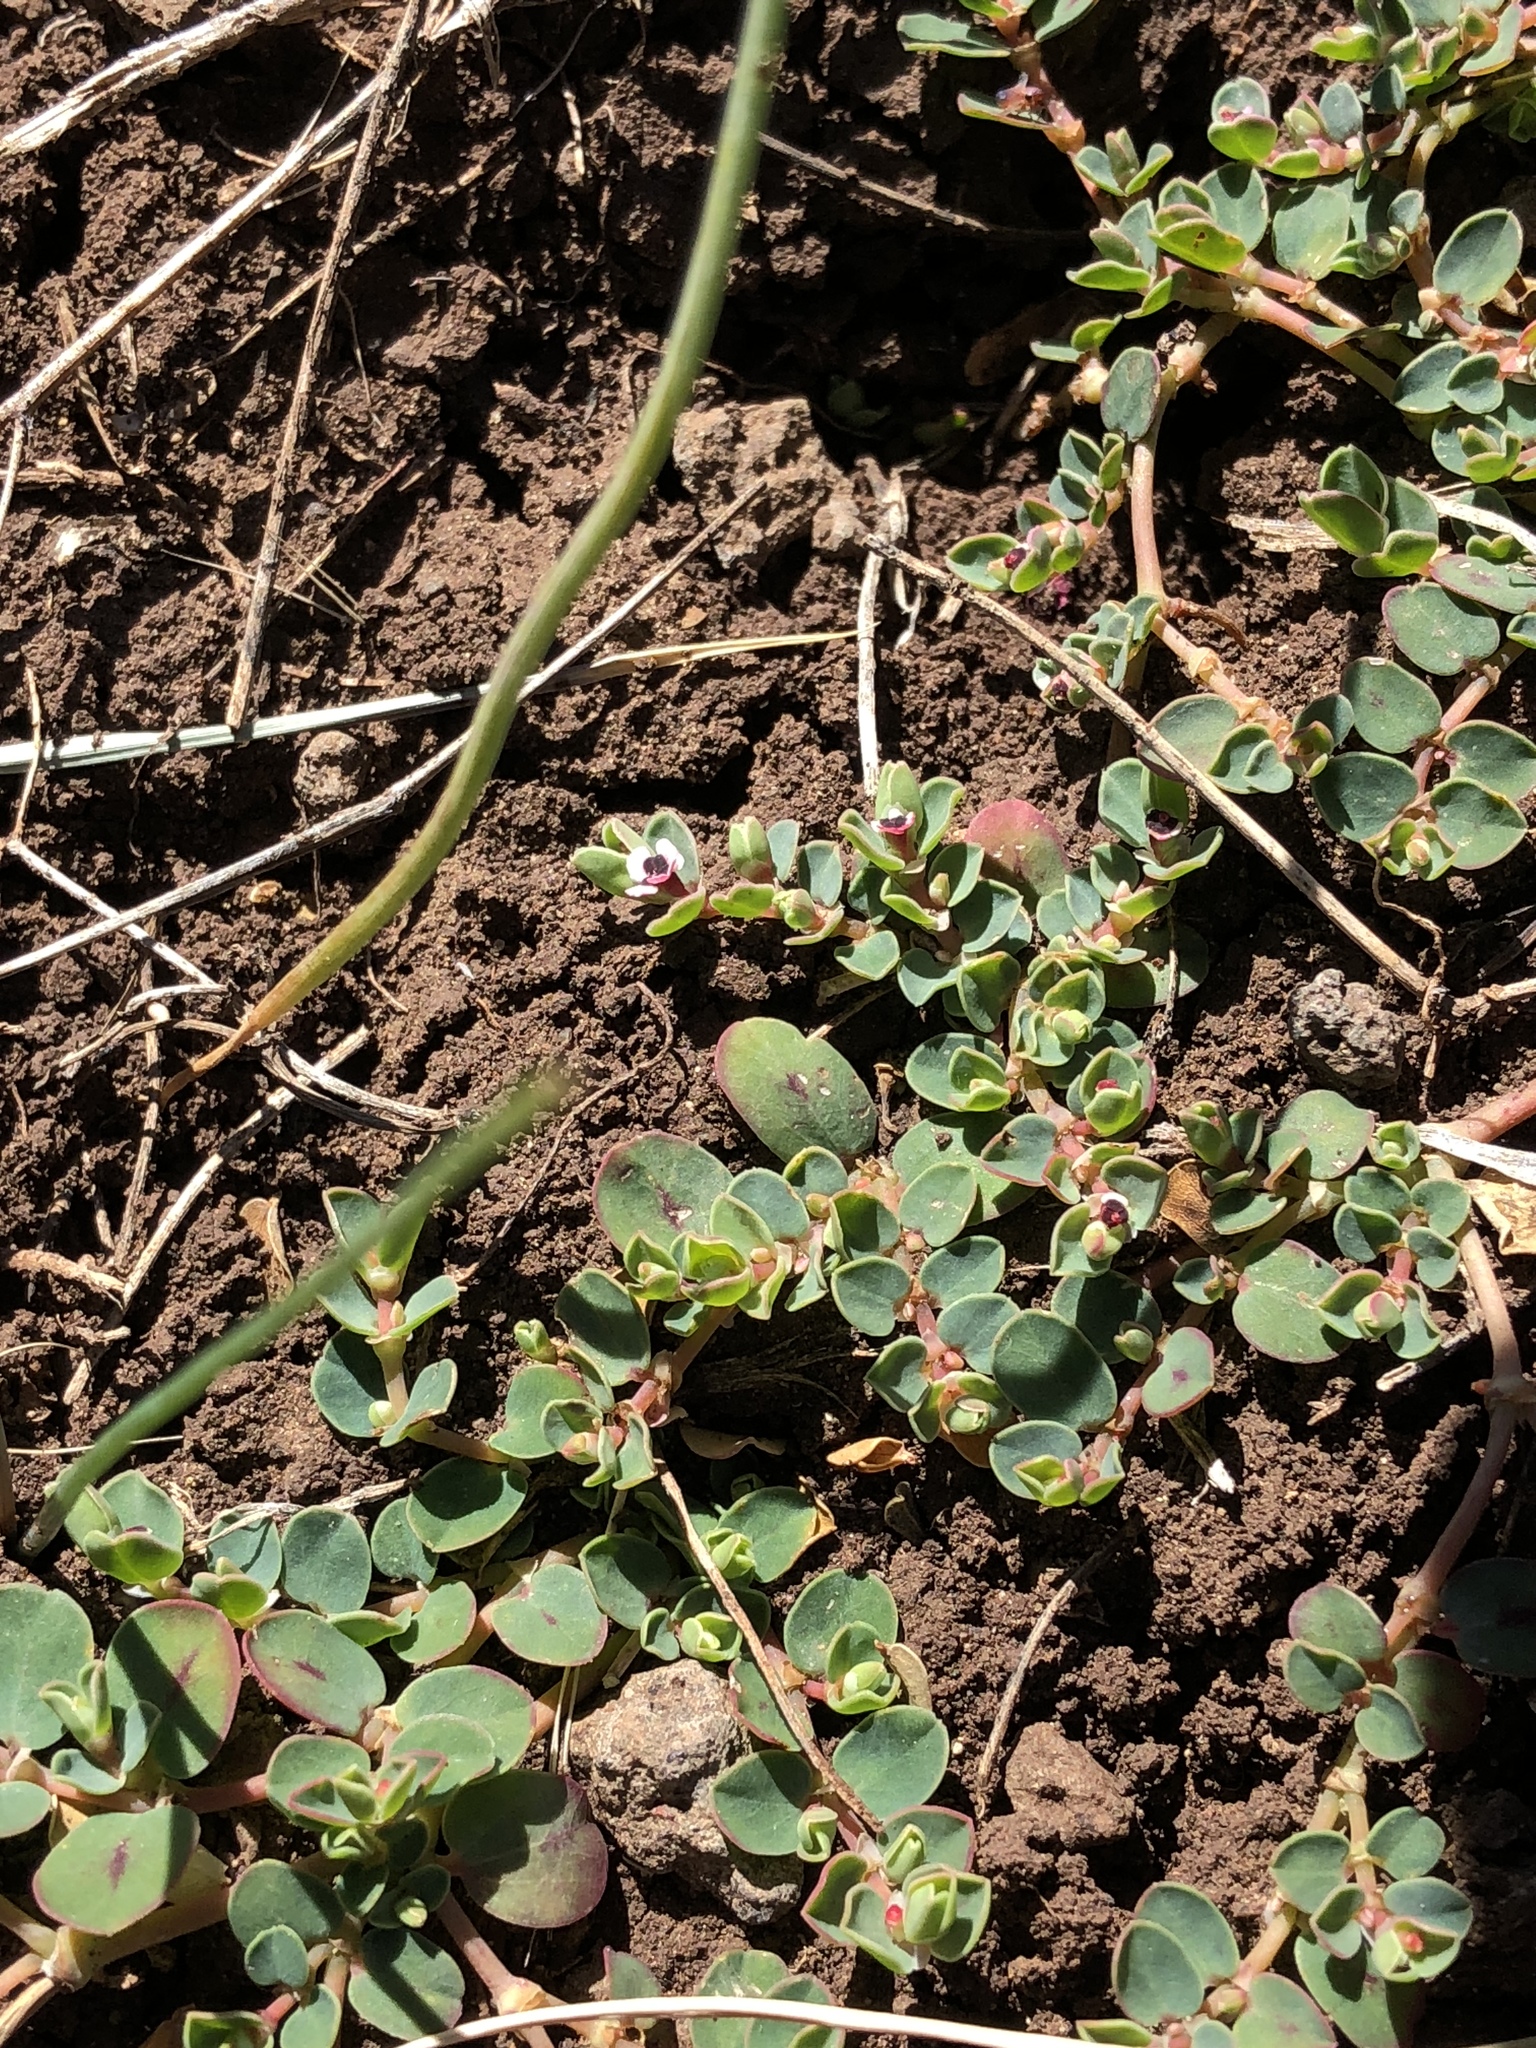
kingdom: Plantae
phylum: Tracheophyta
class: Magnoliopsida
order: Malpighiales
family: Euphorbiaceae
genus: Euphorbia
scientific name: Euphorbia albomarginata
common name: Whitemargin sandmat
